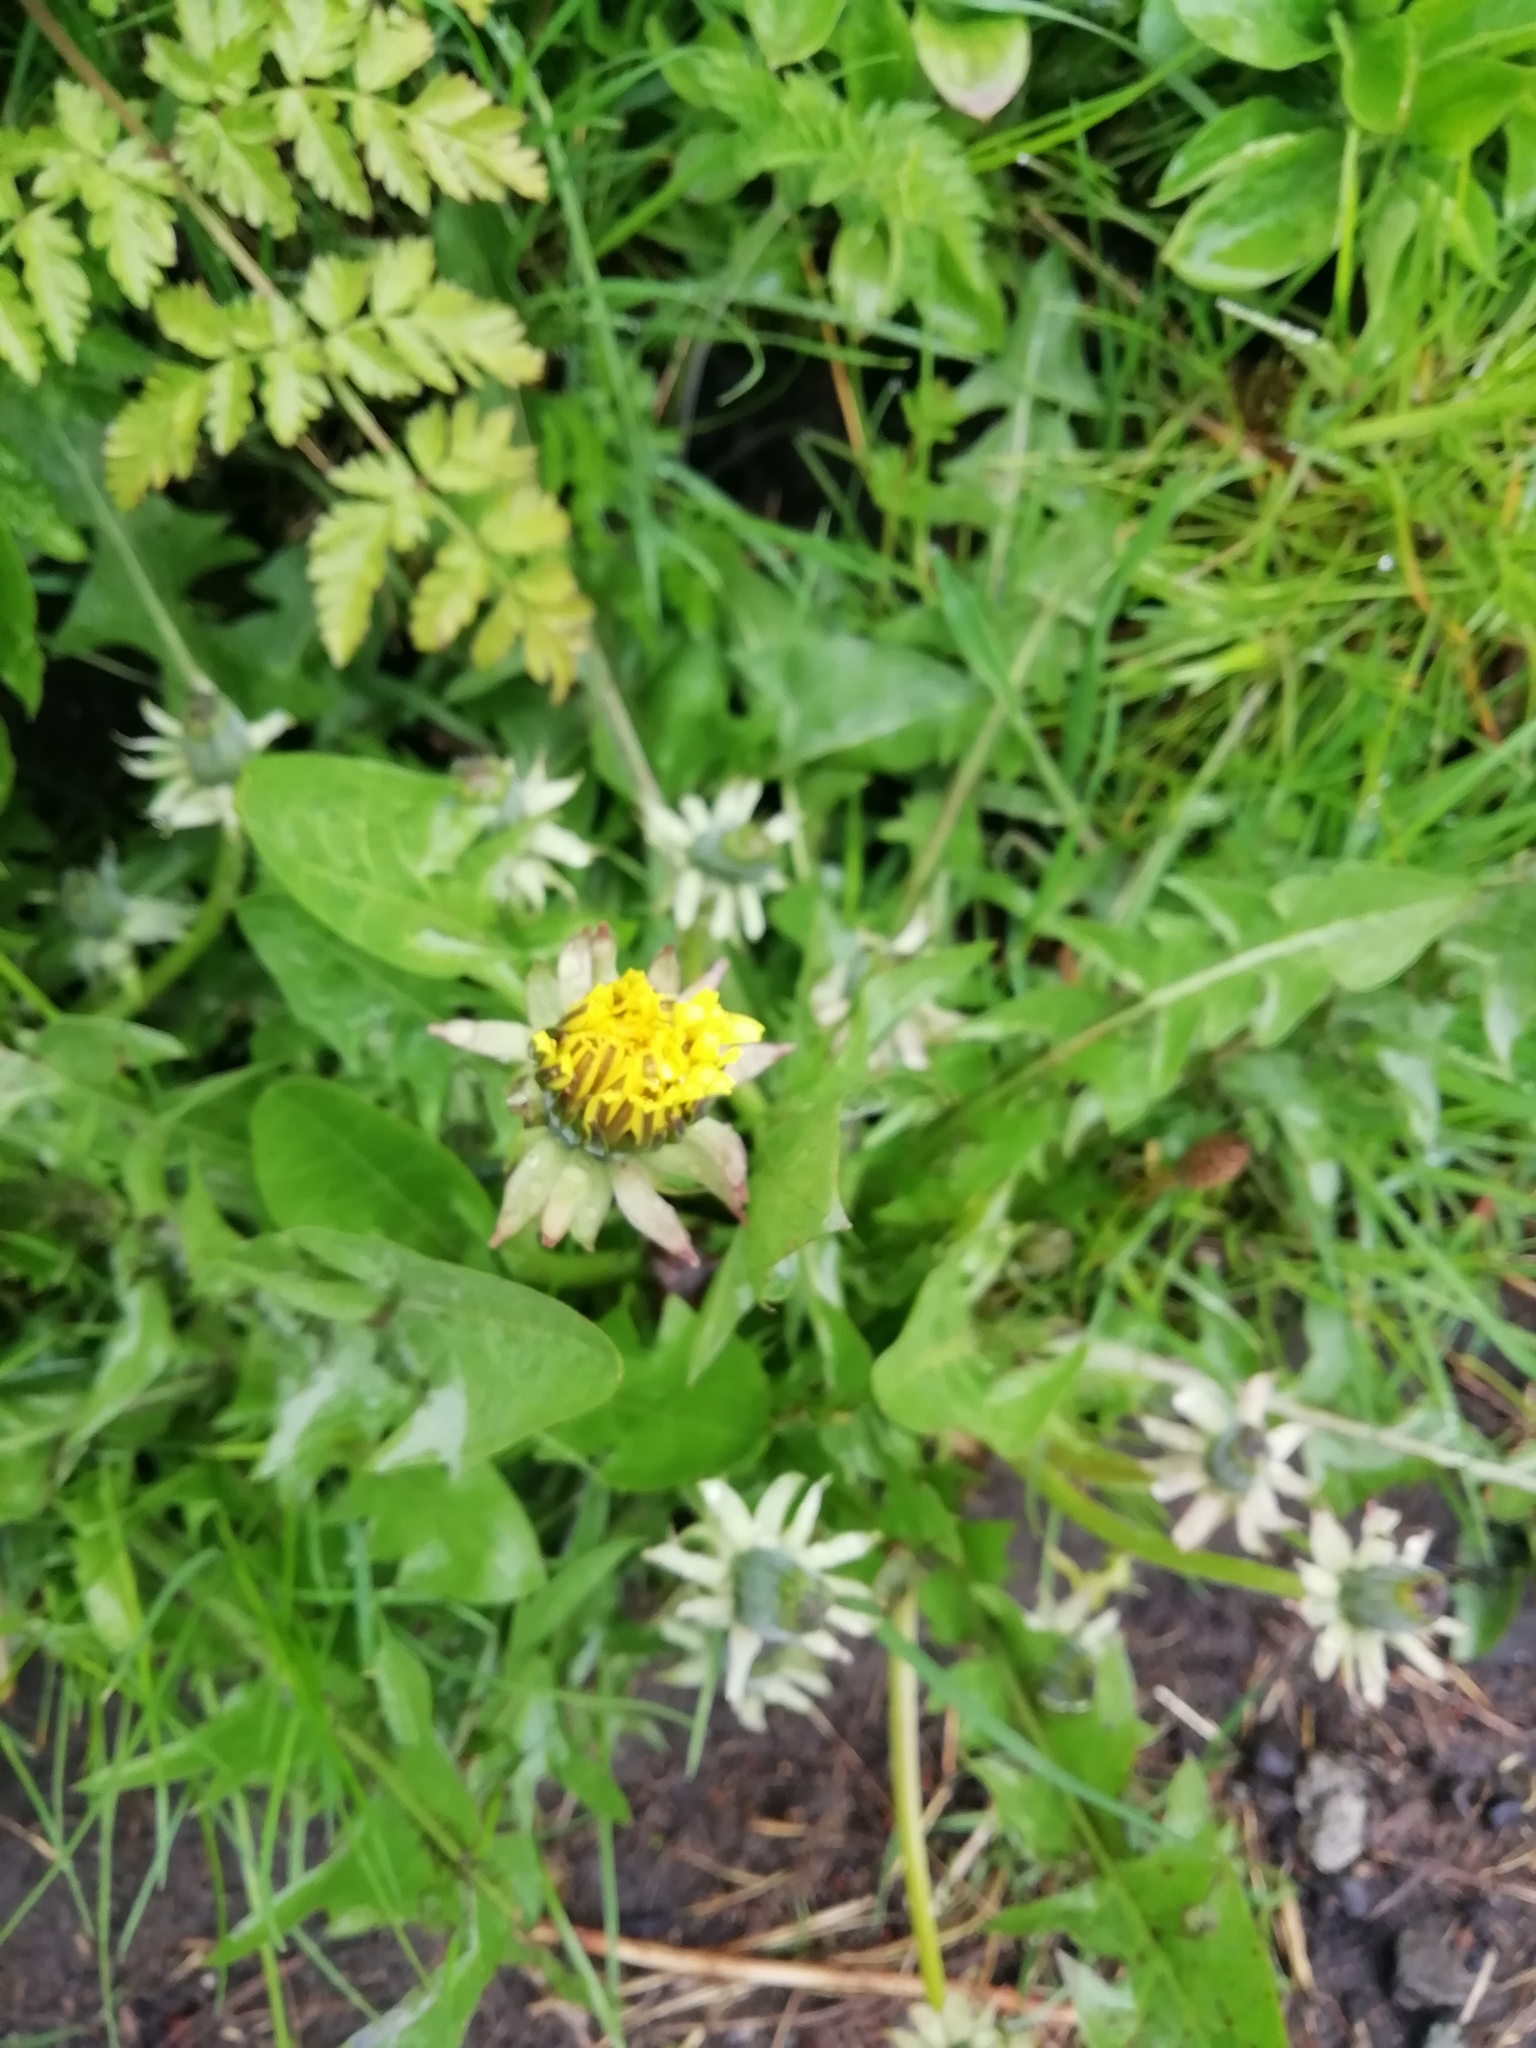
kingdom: Plantae
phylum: Tracheophyta
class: Magnoliopsida
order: Asterales
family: Asteraceae
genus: Taraxacum
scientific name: Taraxacum officinale
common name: Common dandelion
